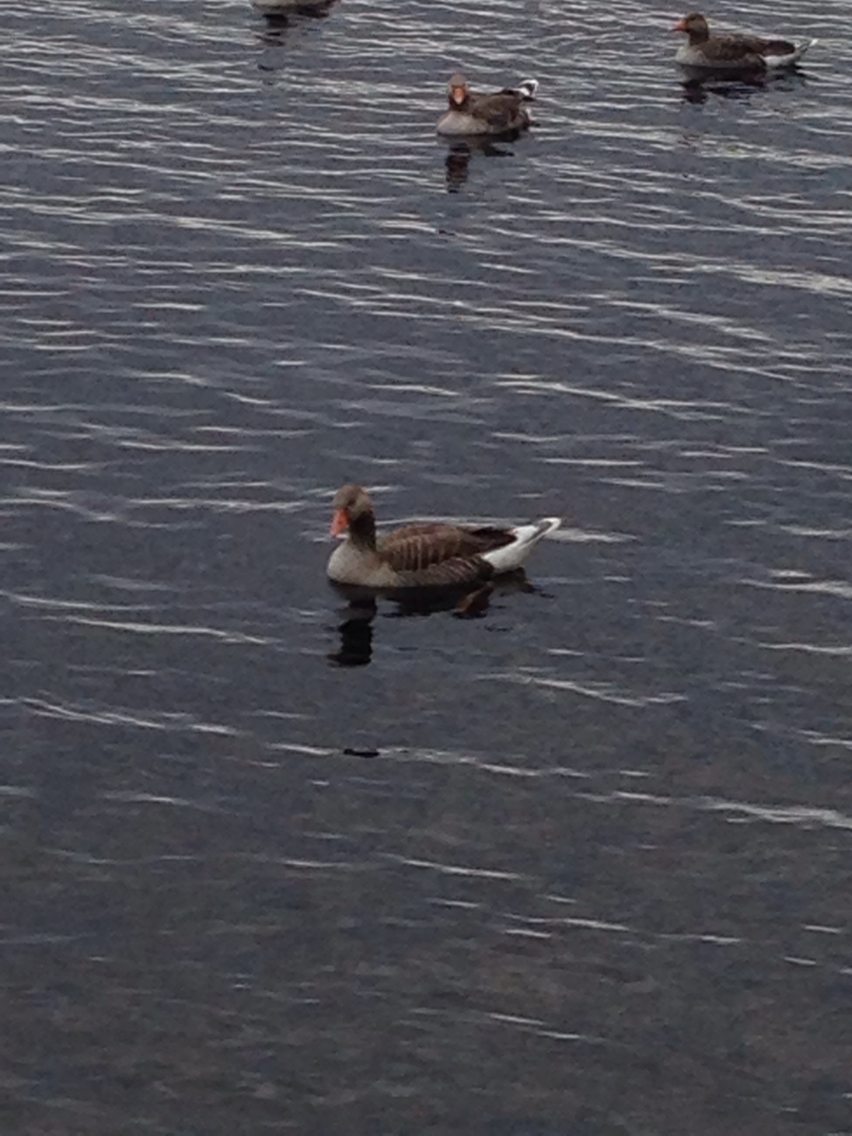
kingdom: Animalia
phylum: Chordata
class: Aves
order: Anseriformes
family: Anatidae
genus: Anser
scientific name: Anser anser
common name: Greylag goose
